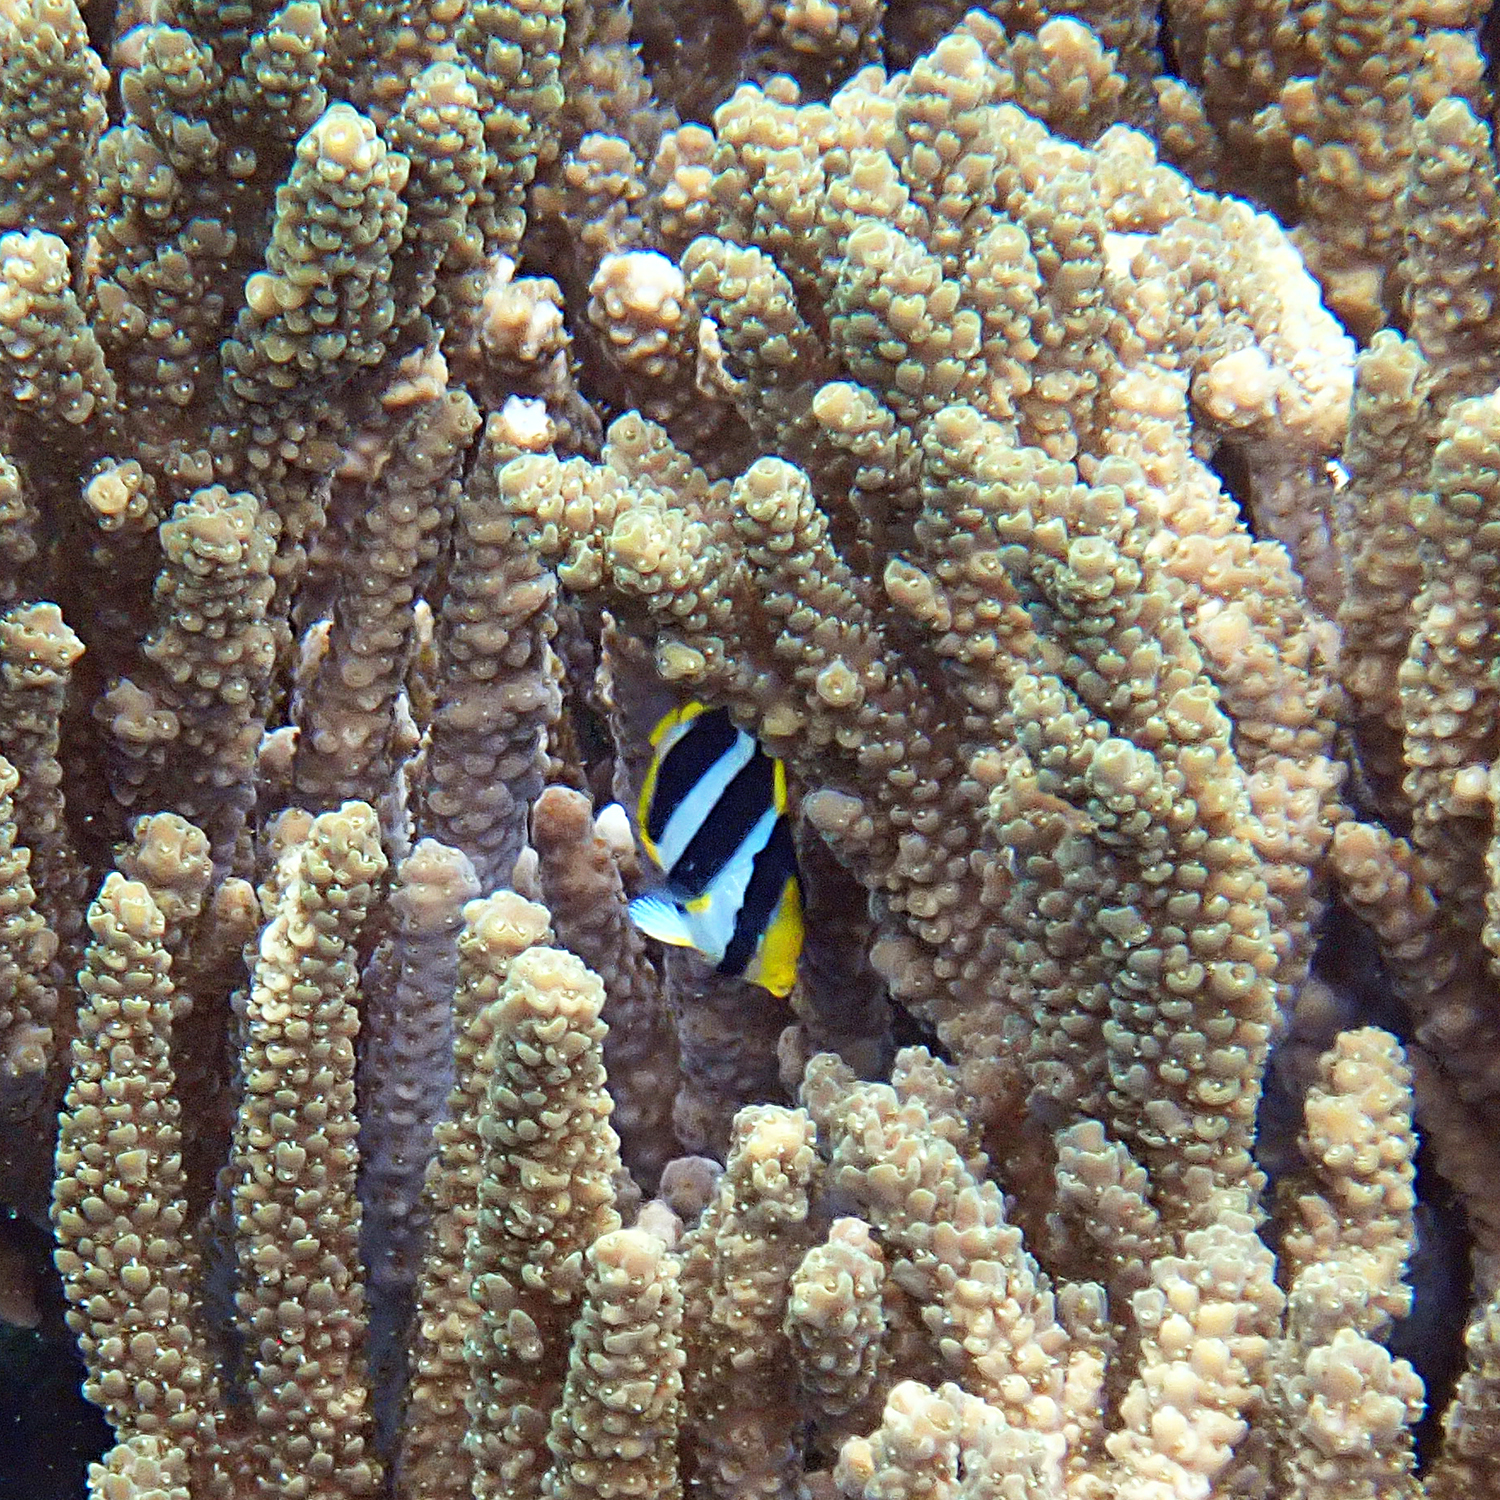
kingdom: Animalia
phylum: Chordata
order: Perciformes
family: Chaetodontidae
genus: Chaetodon
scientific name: Chaetodon tricinctus
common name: Three-striped butterflyfish
